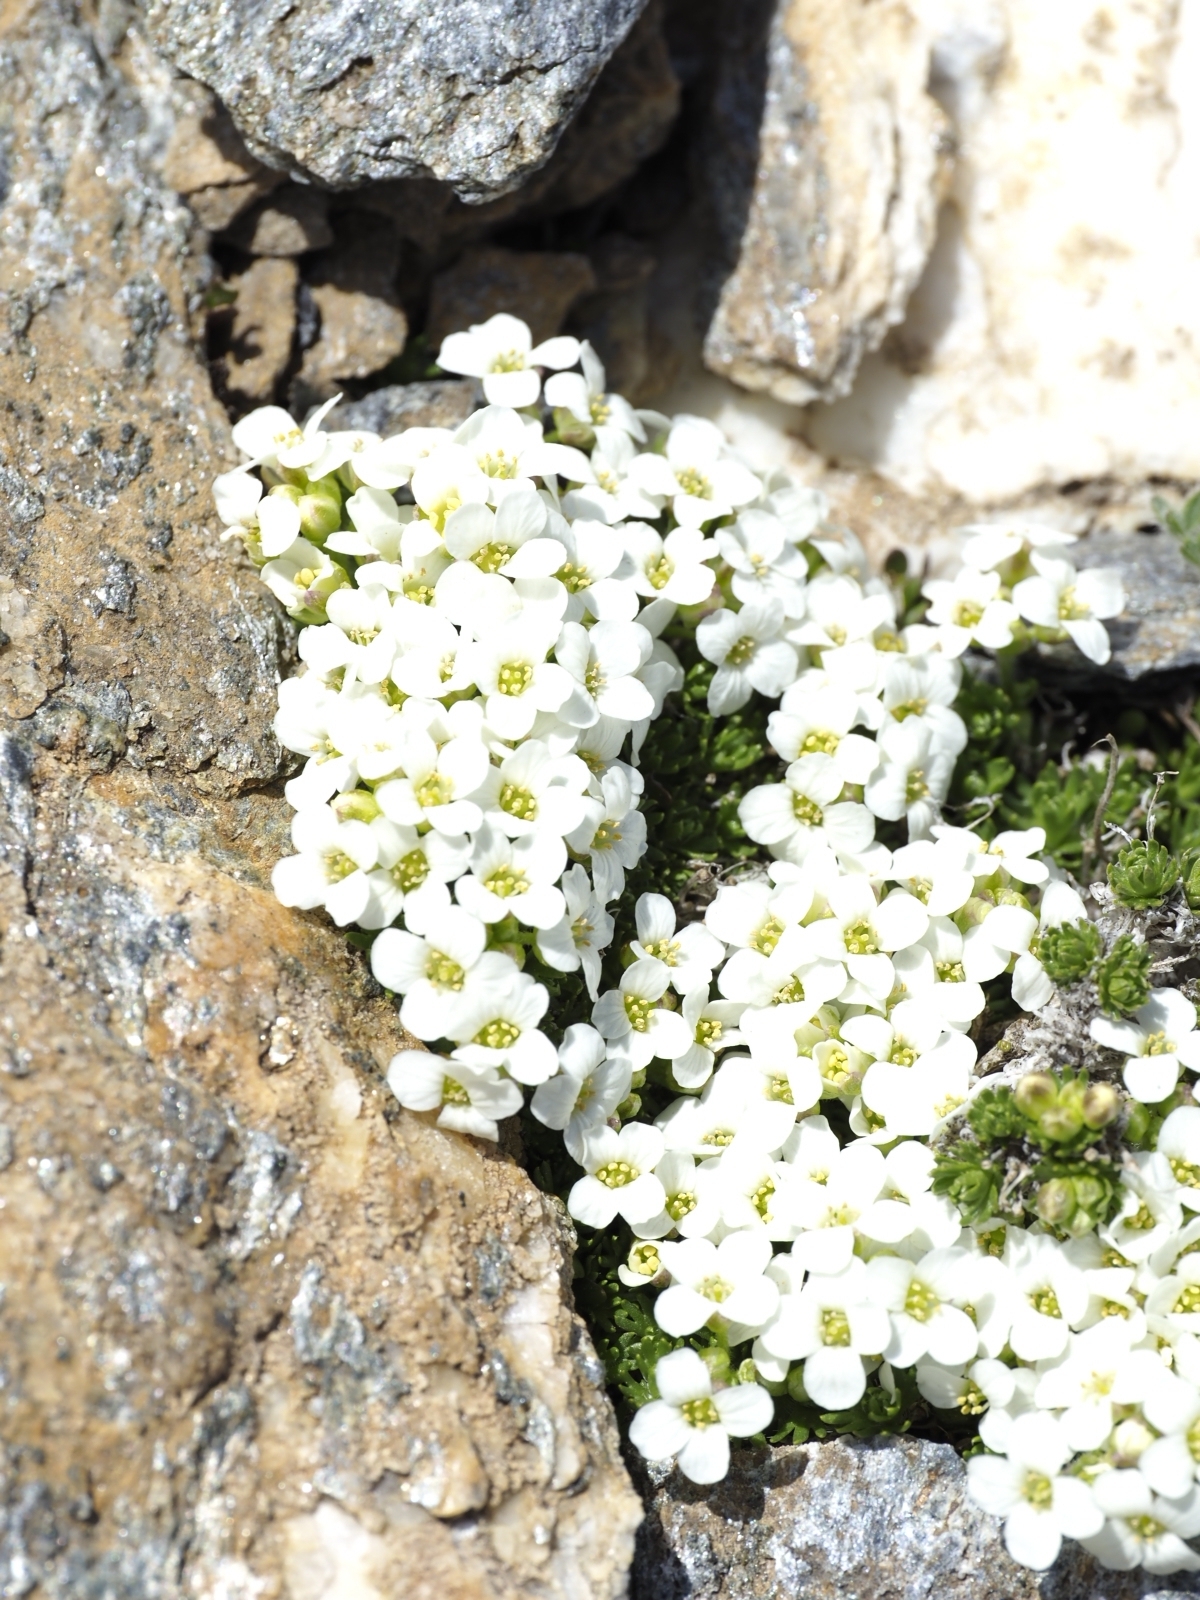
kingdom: Plantae
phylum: Tracheophyta
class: Magnoliopsida
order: Brassicales
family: Brassicaceae
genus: Petrocallis
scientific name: Petrocallis pyrenaica
